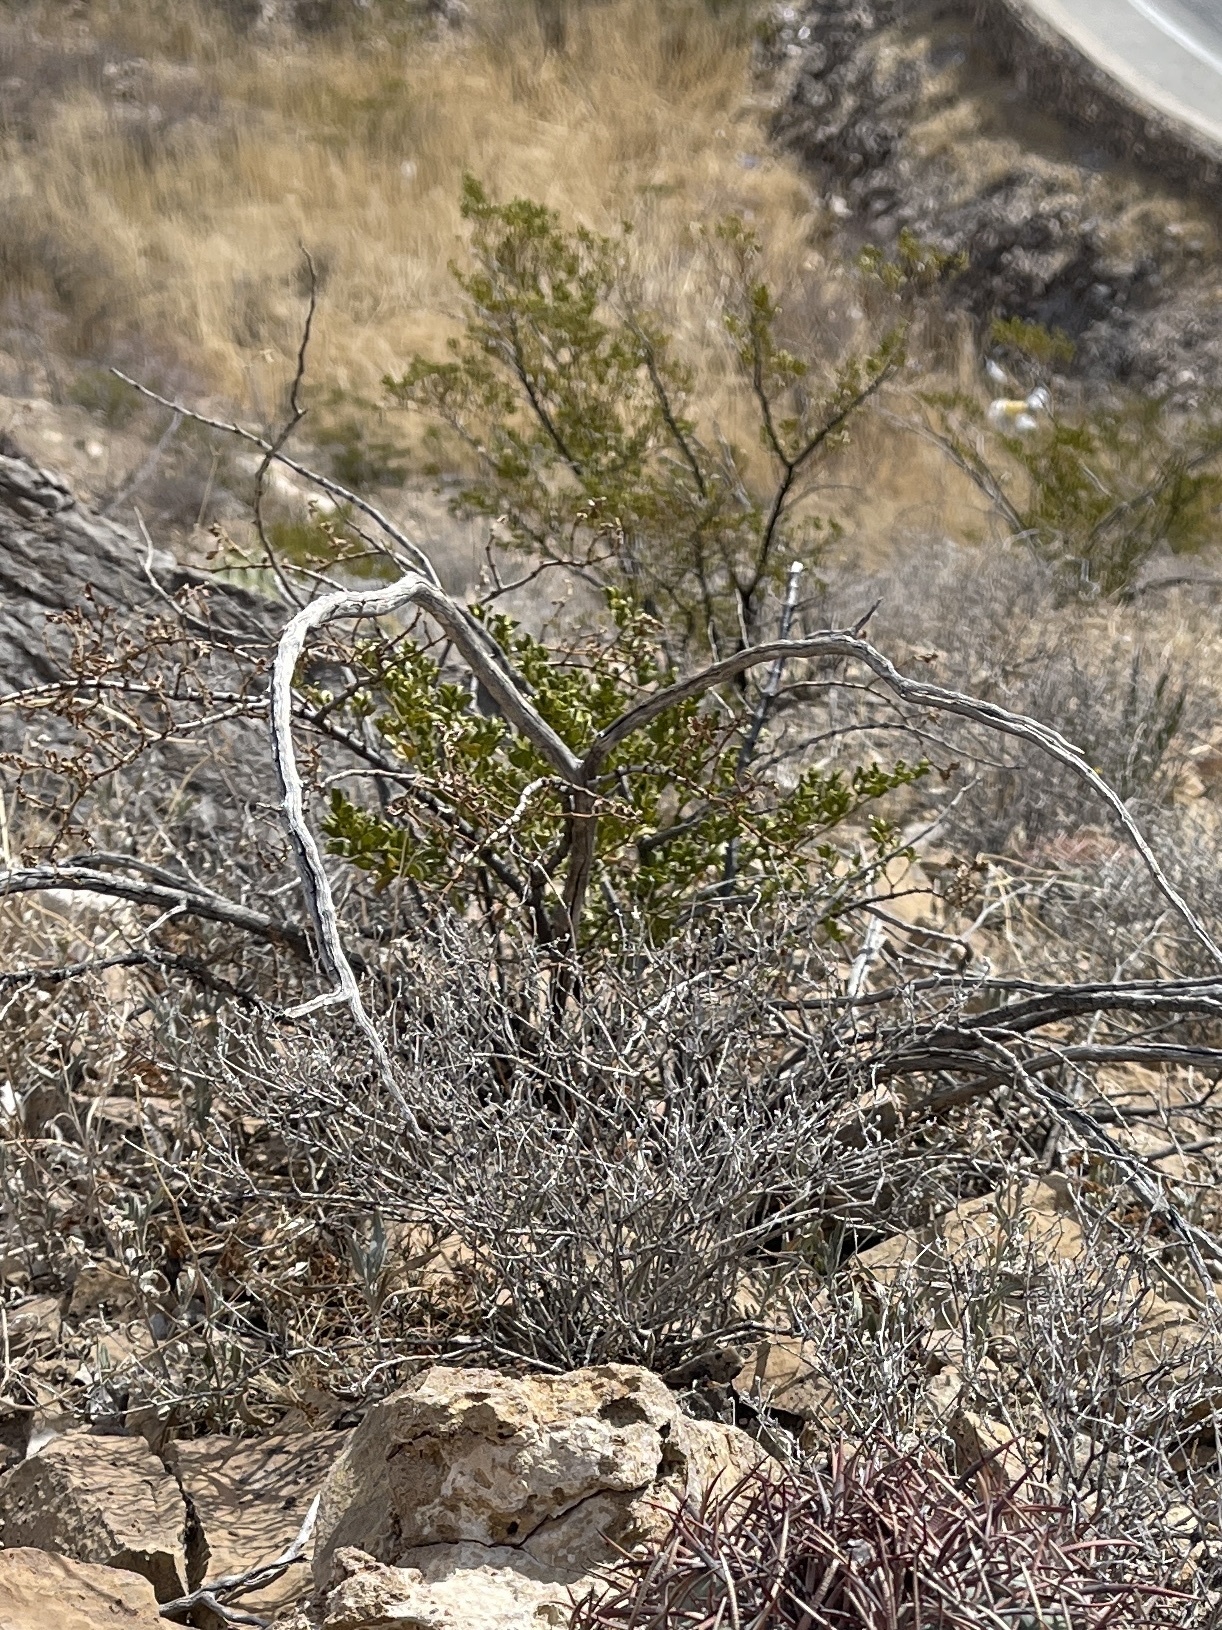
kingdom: Plantae
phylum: Tracheophyta
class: Magnoliopsida
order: Zygophyllales
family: Zygophyllaceae
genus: Larrea
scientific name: Larrea tridentata
